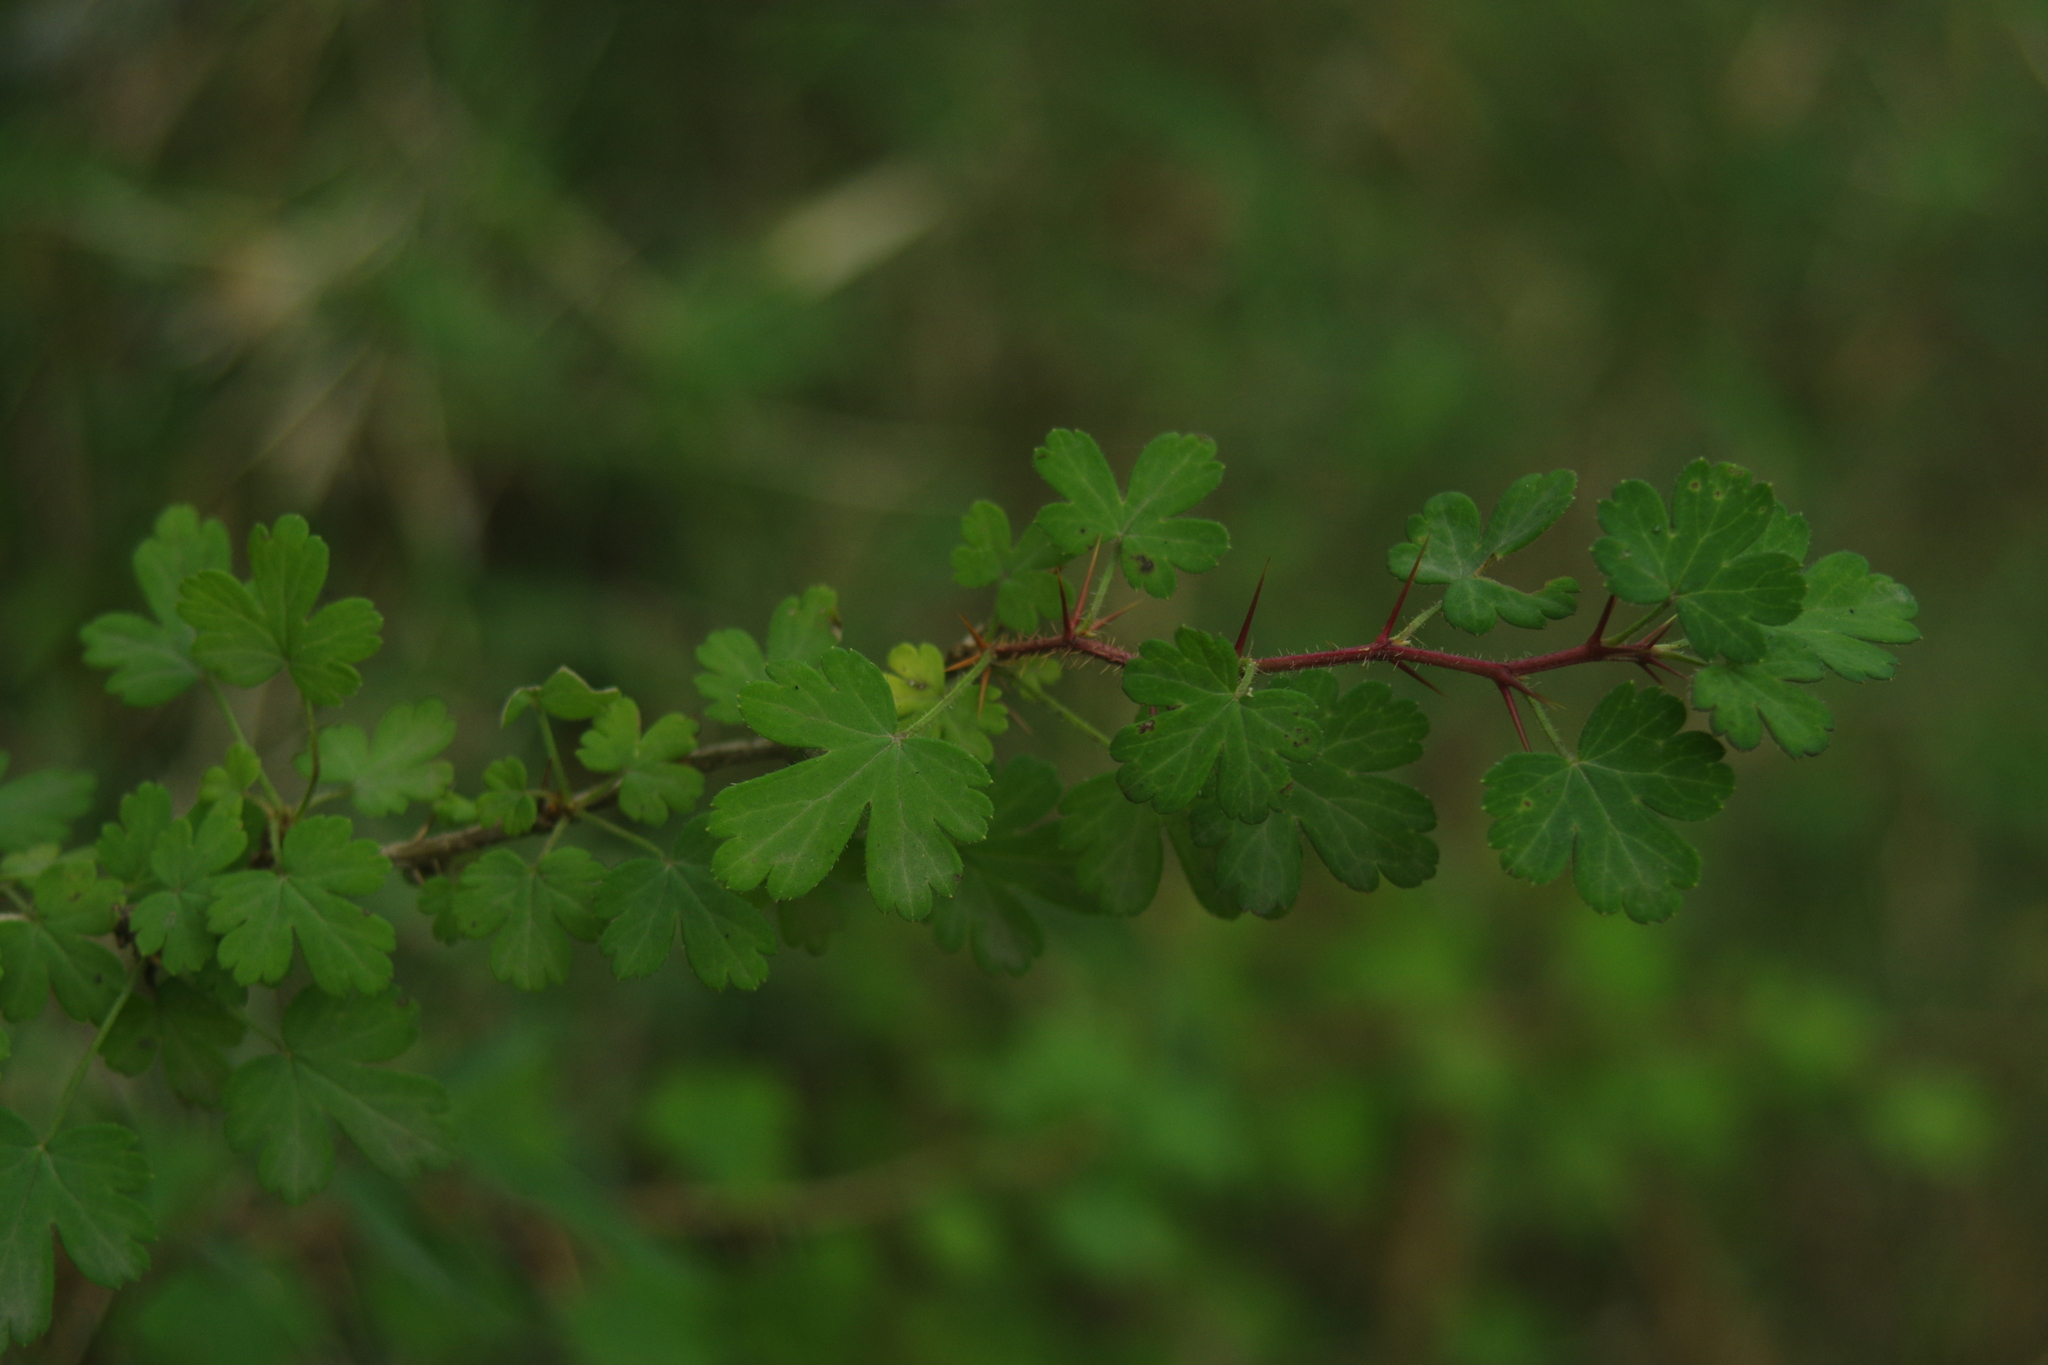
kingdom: Plantae
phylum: Tracheophyta
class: Magnoliopsida
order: Saxifragales
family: Grossulariaceae
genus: Ribes
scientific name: Ribes formosanum
